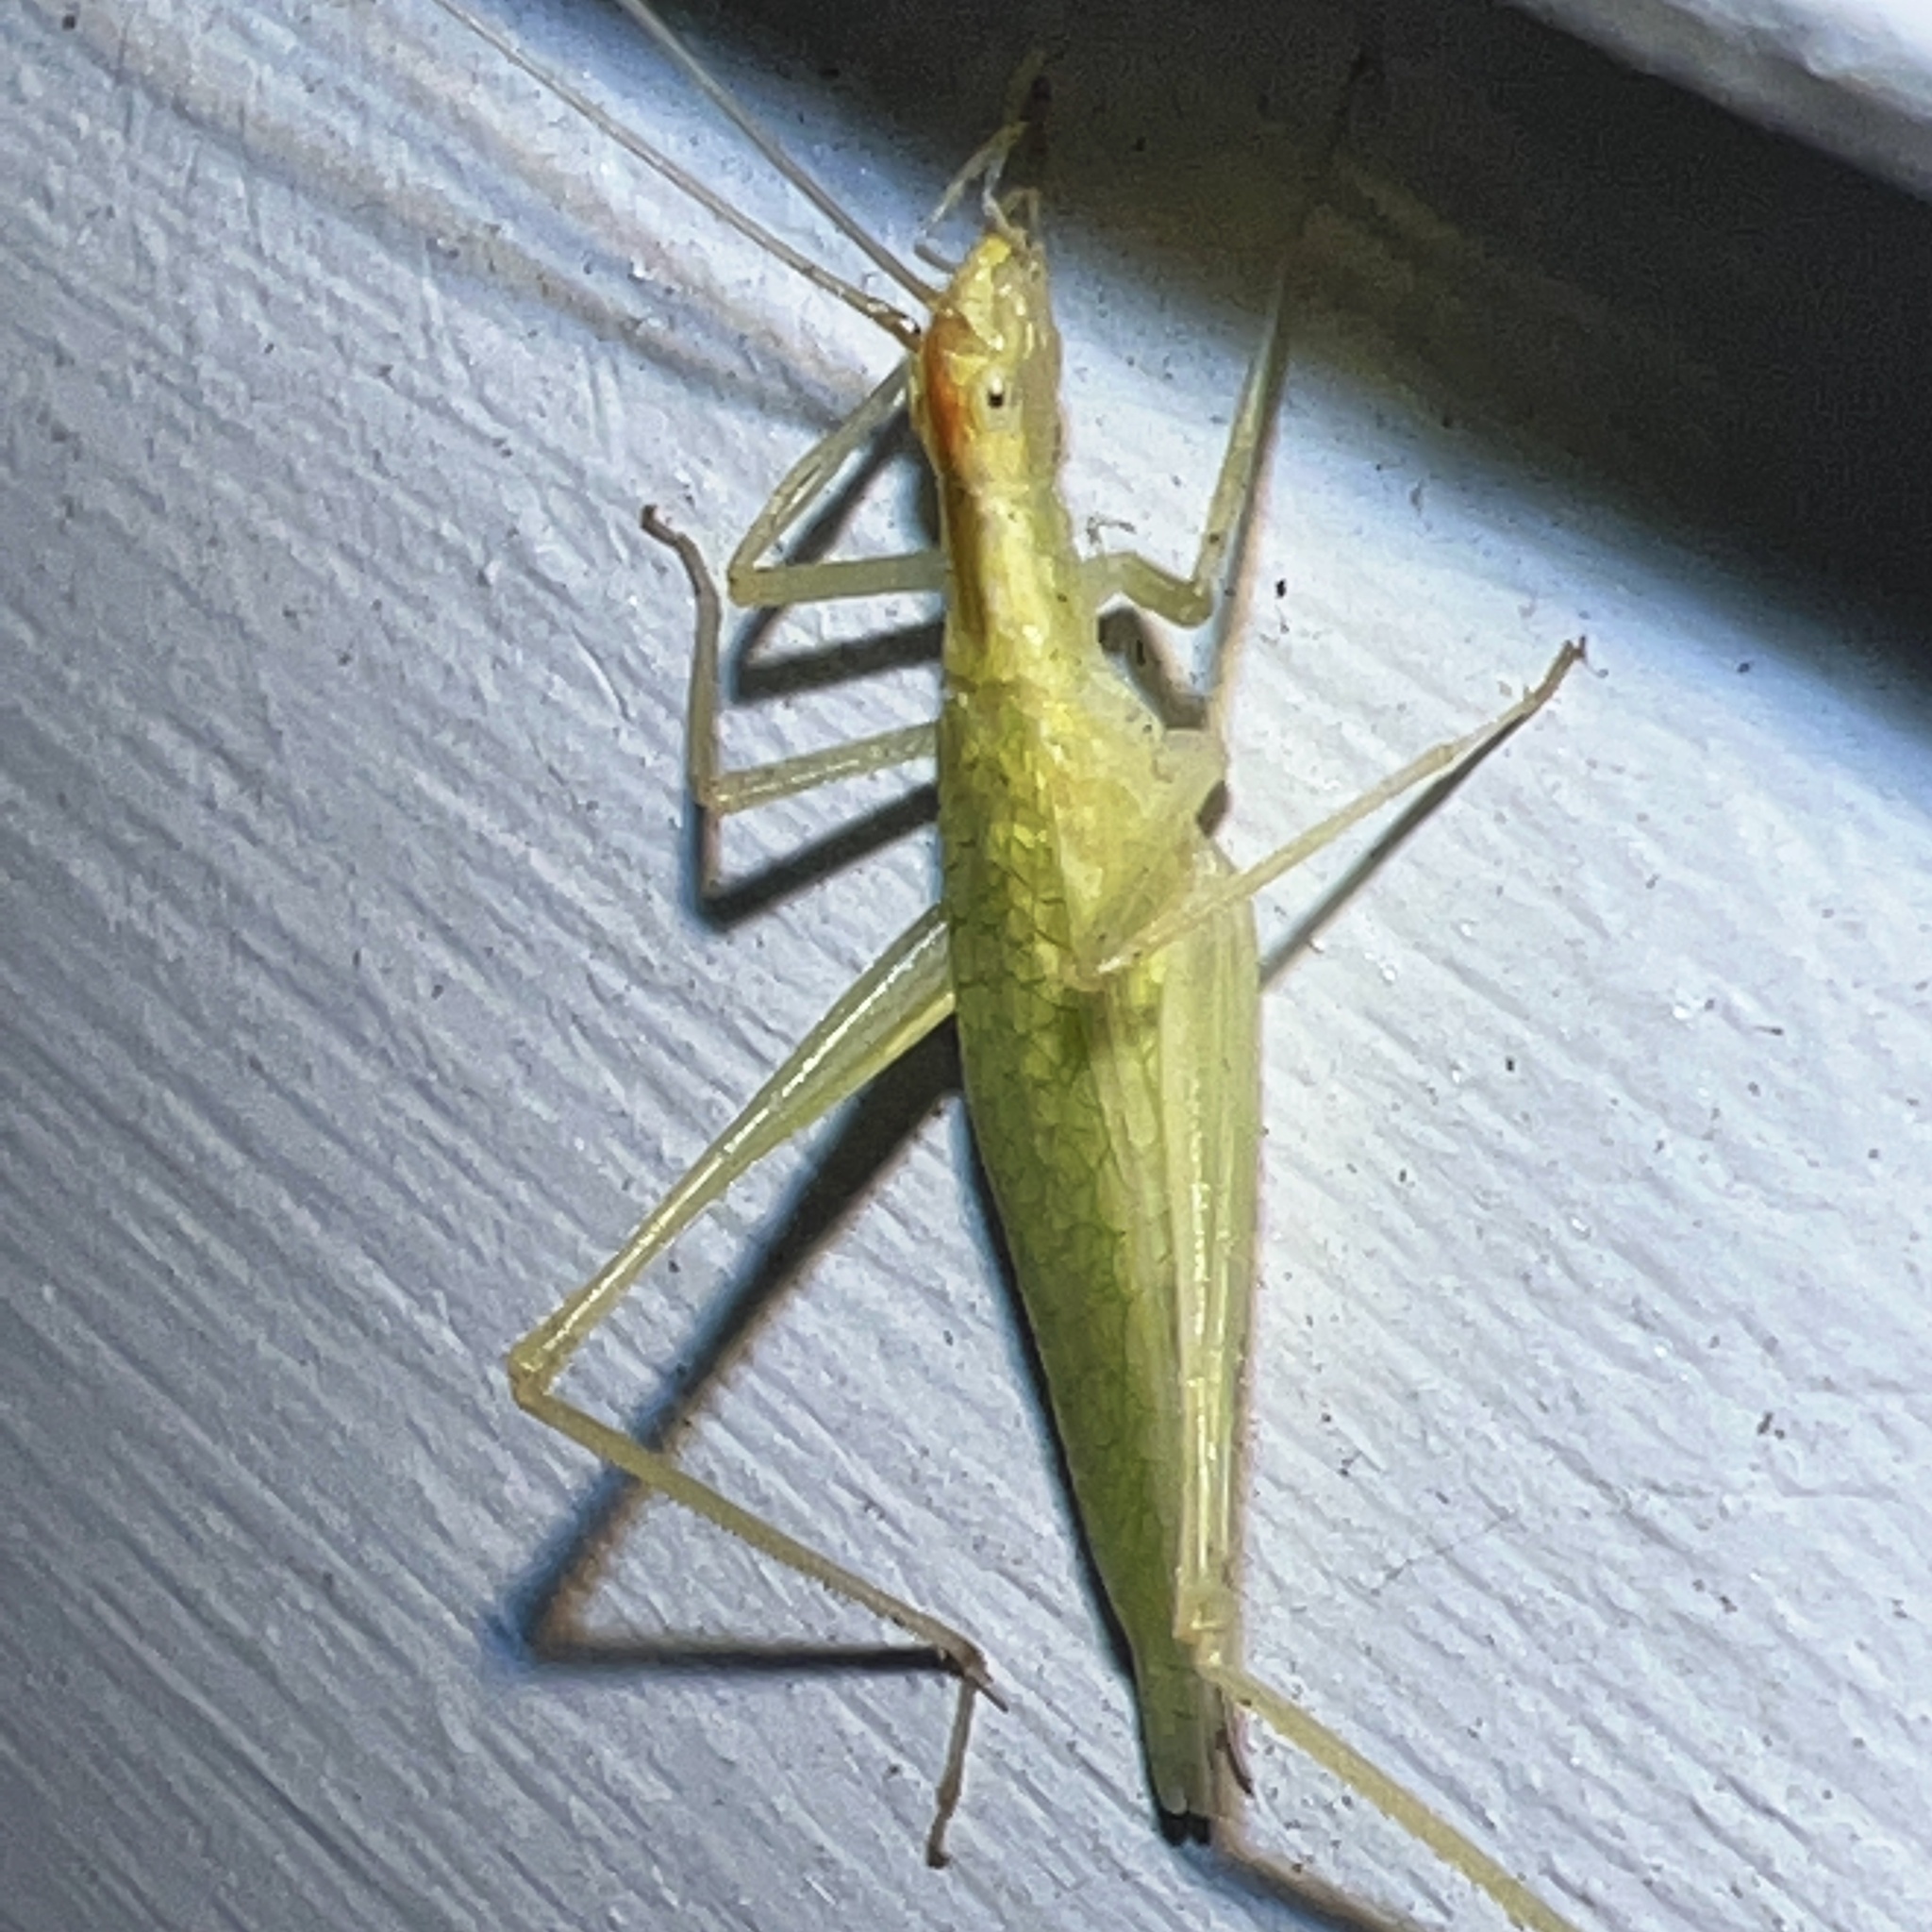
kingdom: Animalia
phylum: Arthropoda
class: Insecta
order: Orthoptera
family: Gryllidae
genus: Oecanthus
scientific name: Oecanthus niveus
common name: Narrow-winged tree cricket
